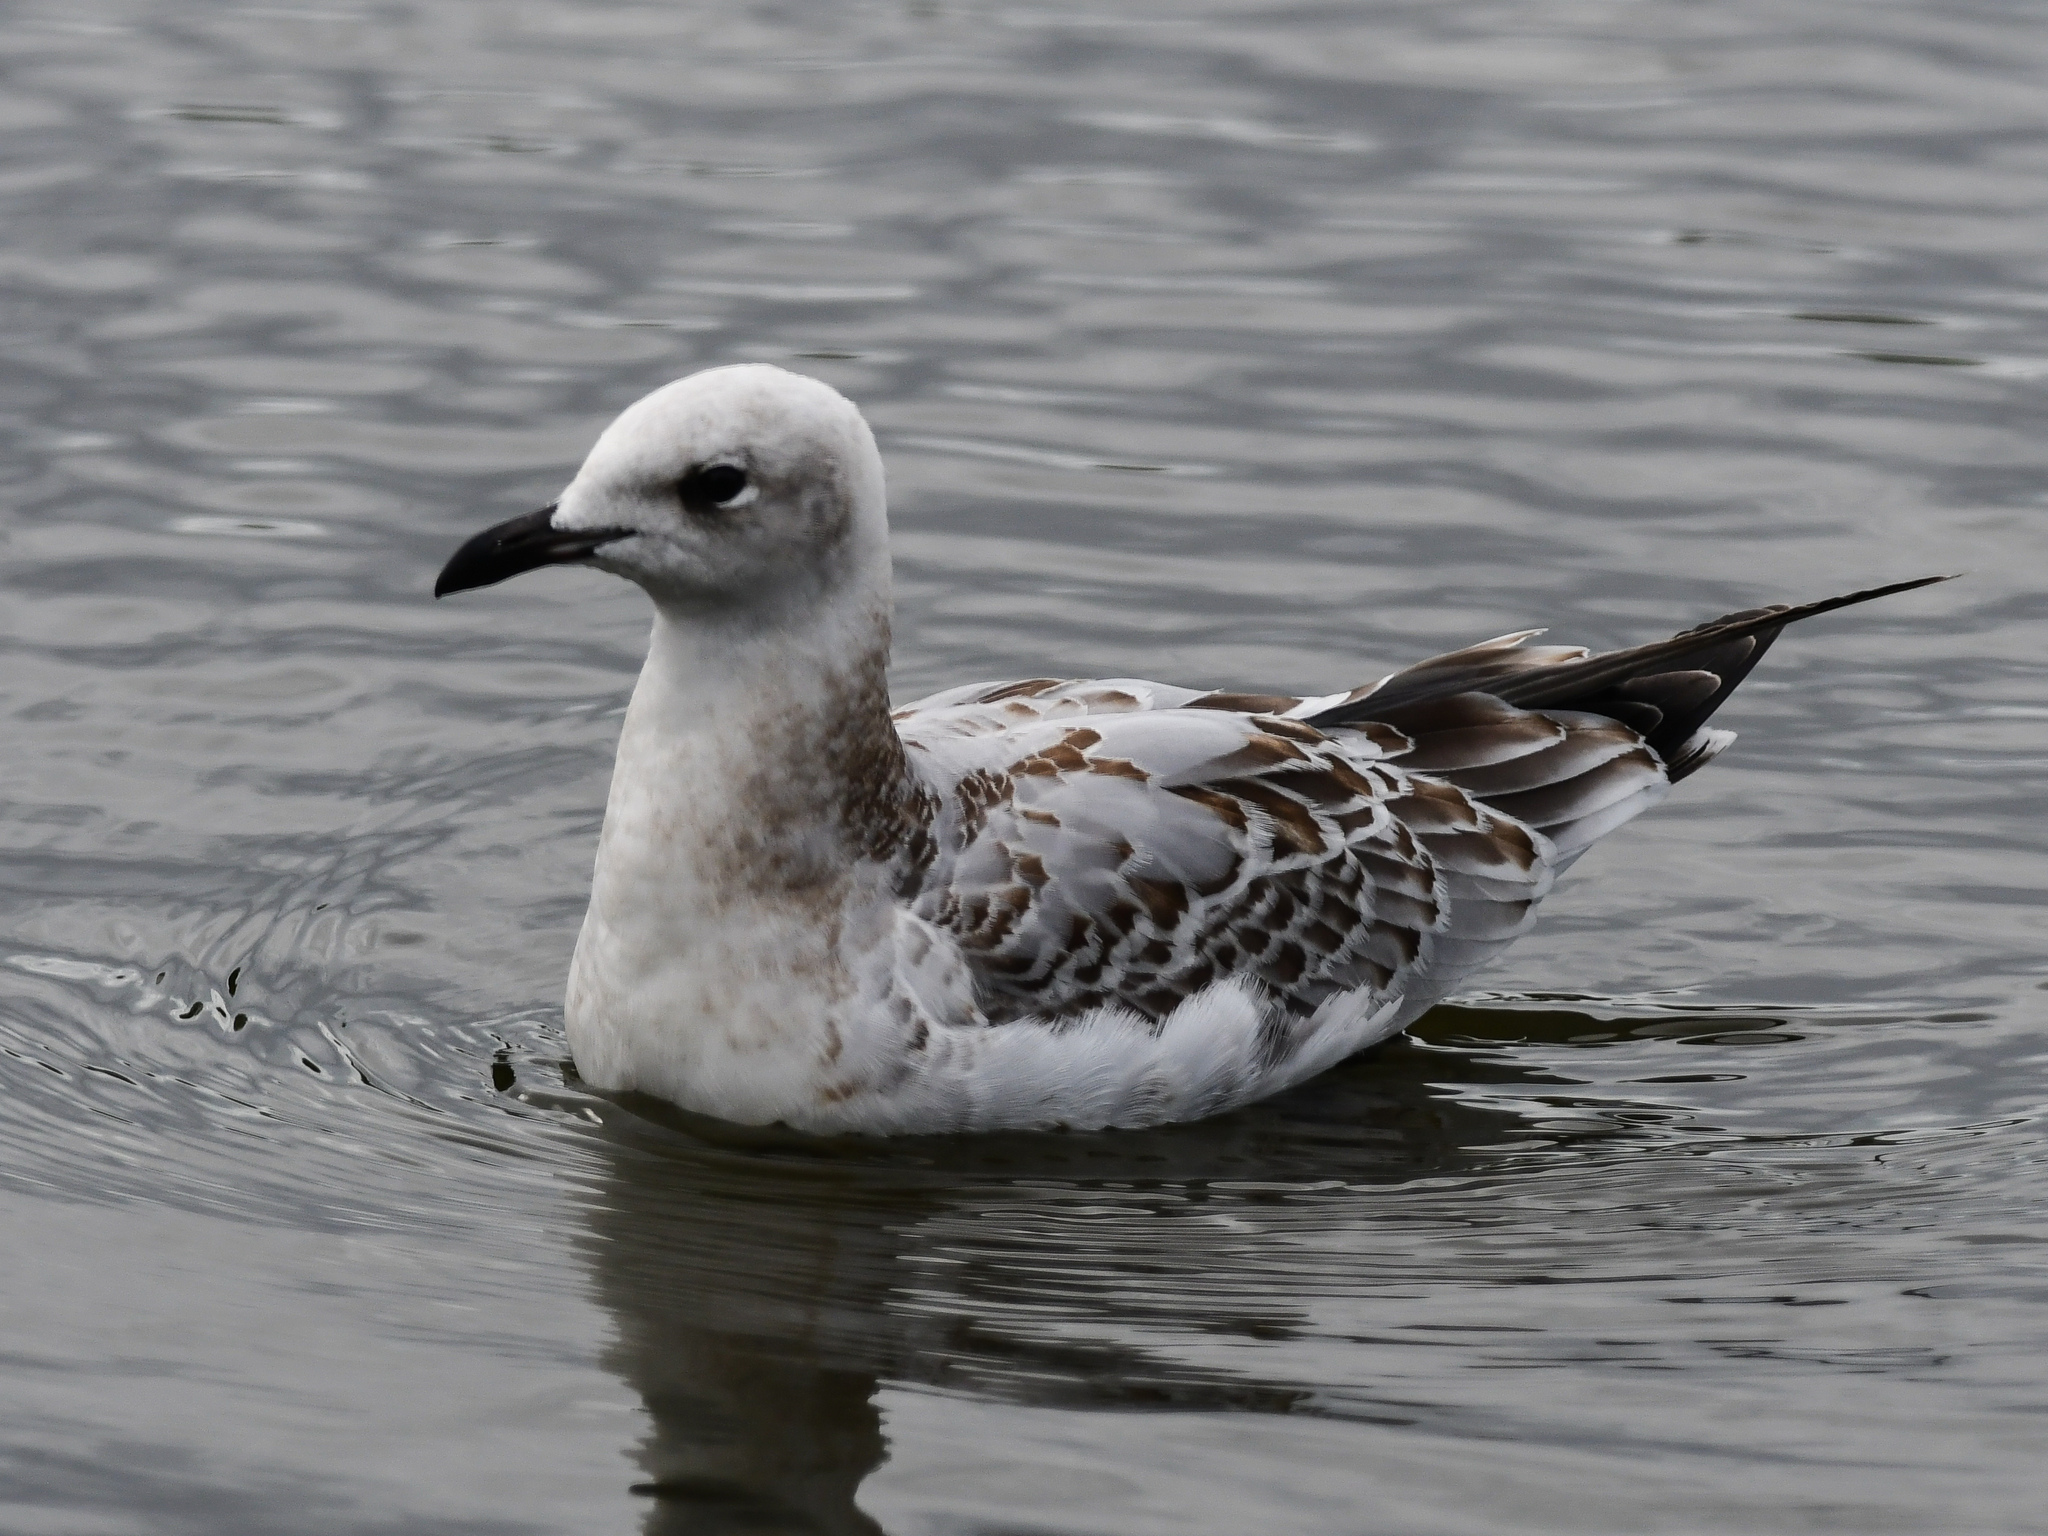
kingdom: Animalia
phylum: Chordata
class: Aves
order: Charadriiformes
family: Laridae
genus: Ichthyaetus
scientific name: Ichthyaetus melanocephalus
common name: Mediterranean gull
